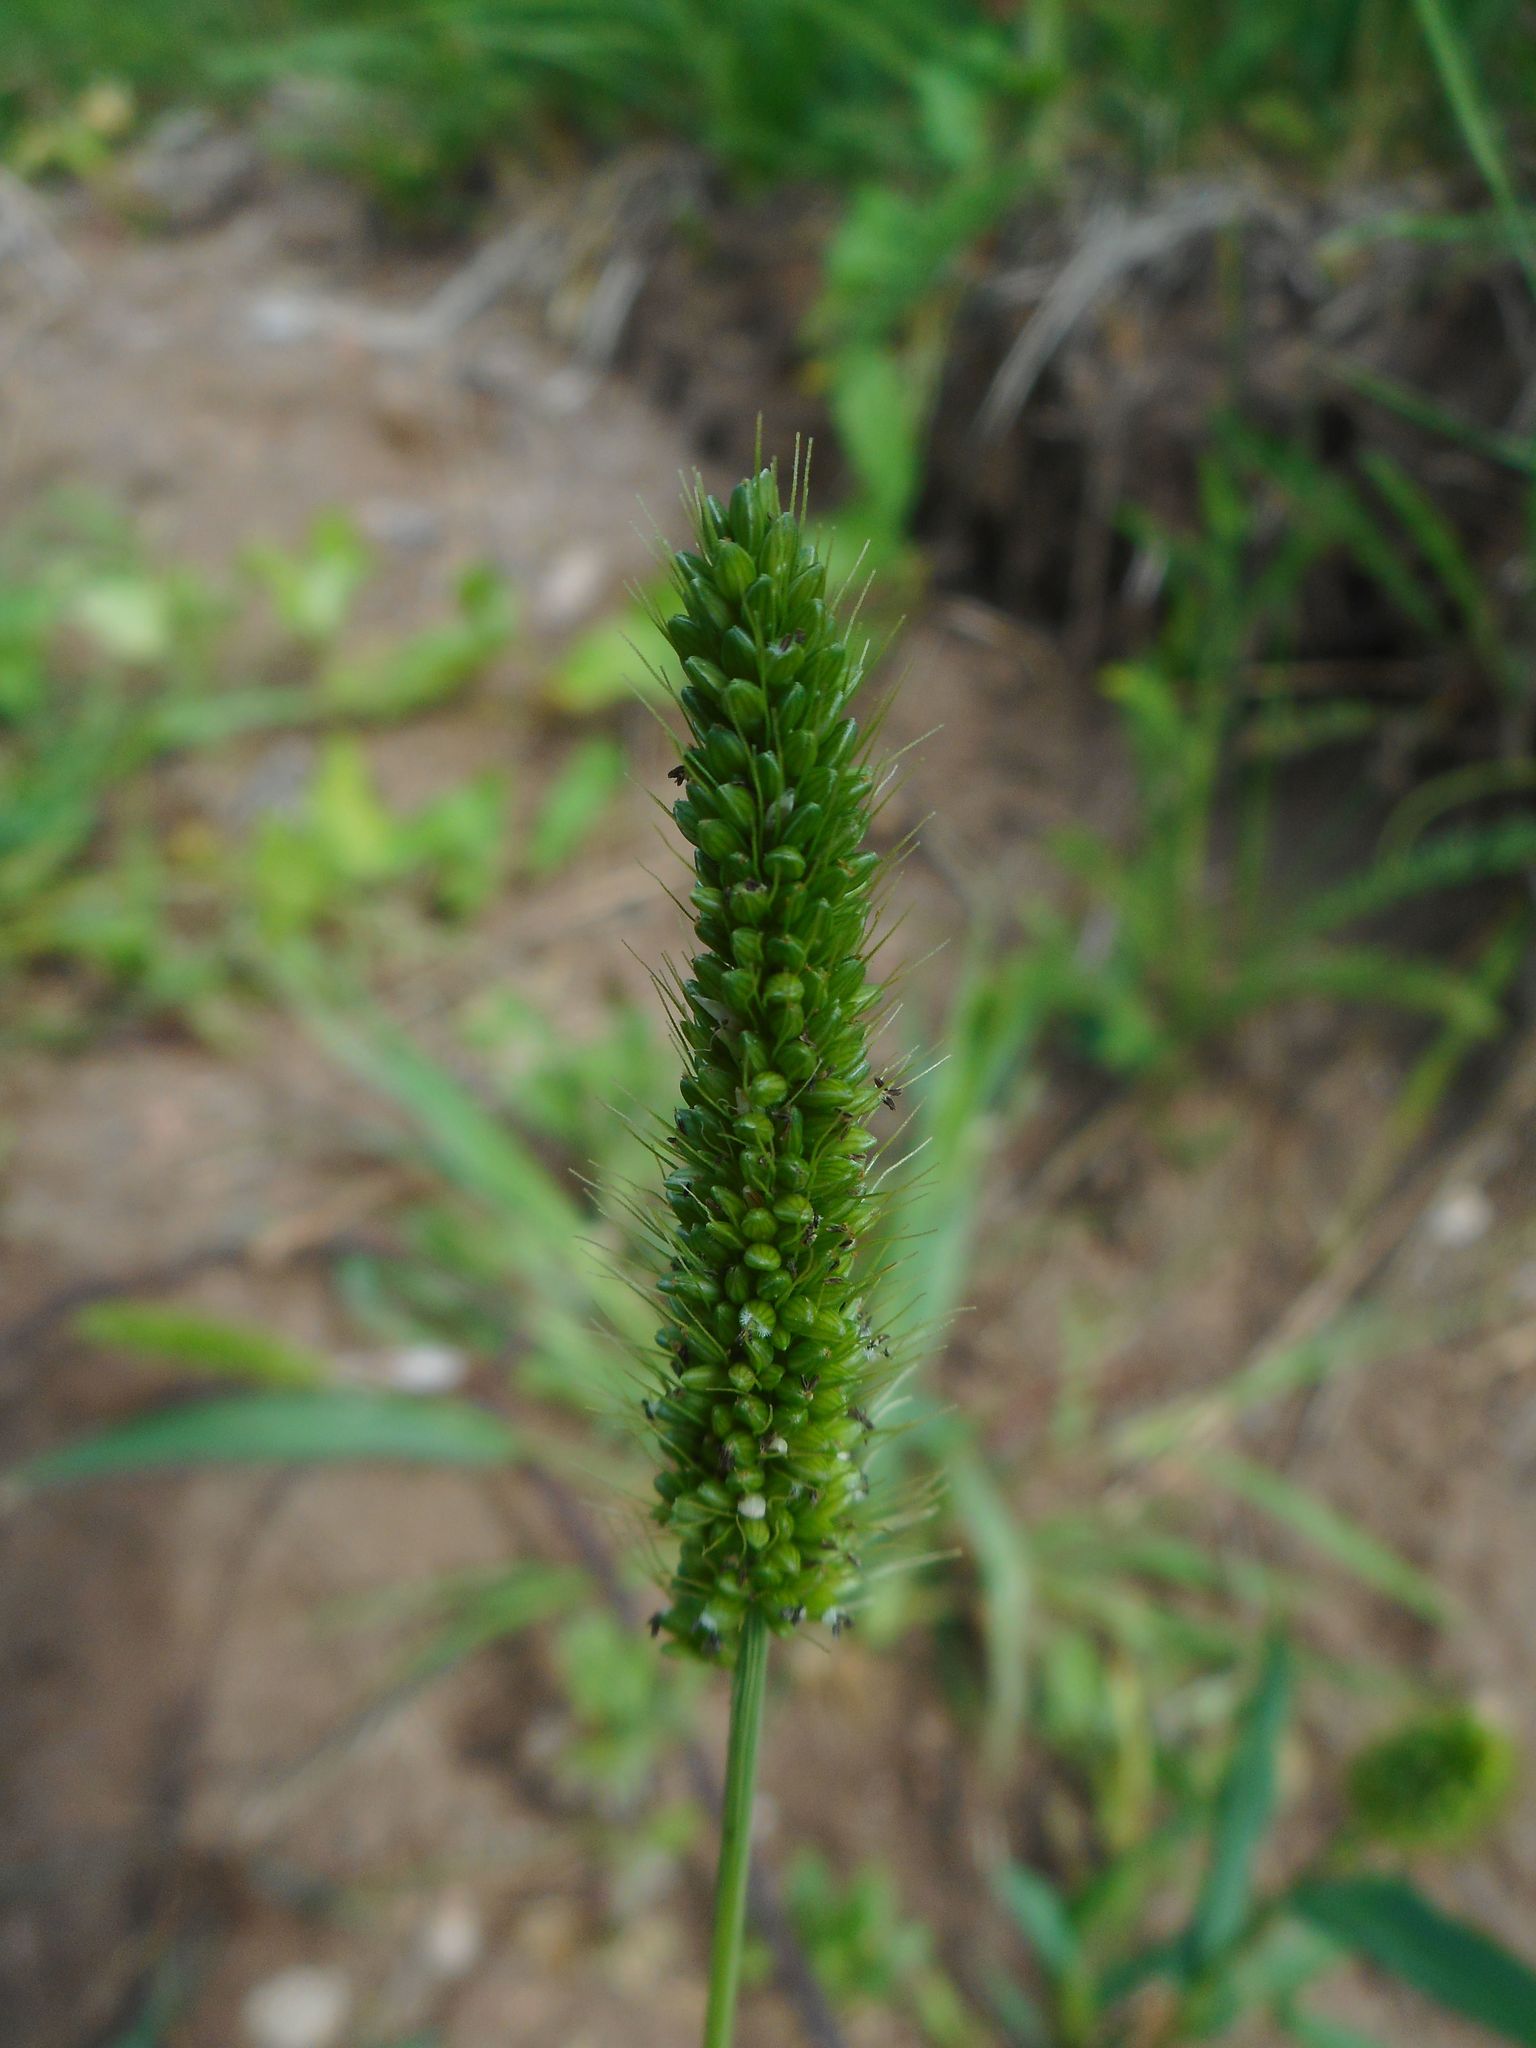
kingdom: Plantae
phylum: Tracheophyta
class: Liliopsida
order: Poales
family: Poaceae
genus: Setaria
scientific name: Setaria viridis
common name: Green bristlegrass
